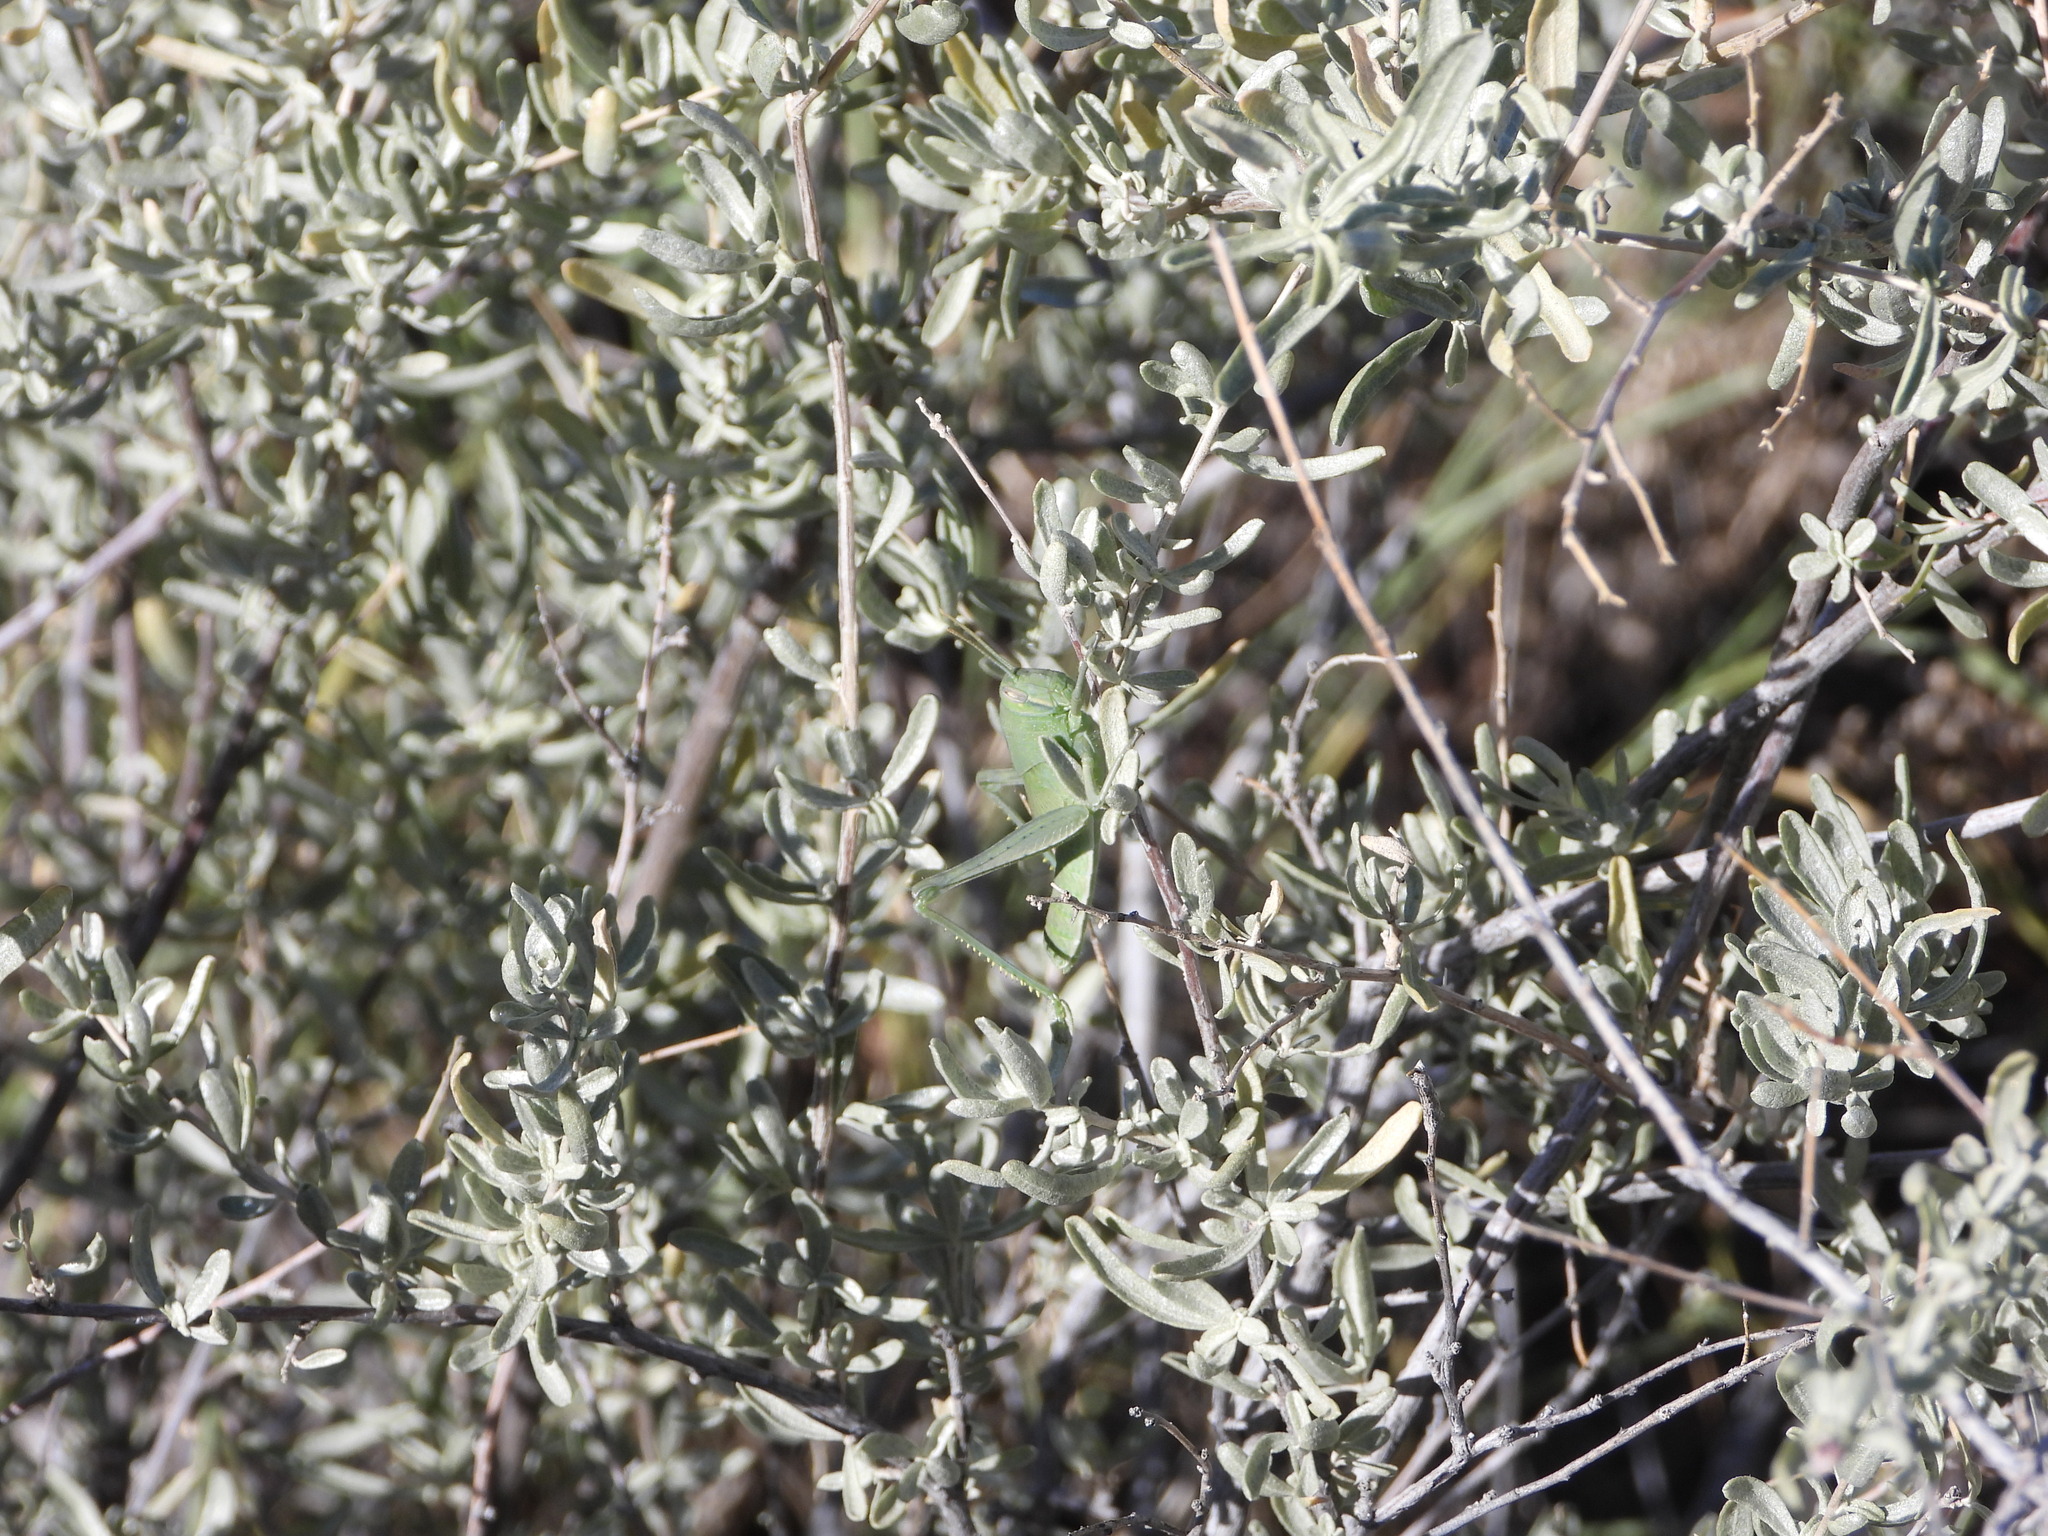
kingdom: Animalia
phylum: Arthropoda
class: Insecta
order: Orthoptera
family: Acrididae
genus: Schistocerca
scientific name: Schistocerca nitens
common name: Vagrant grasshopper
